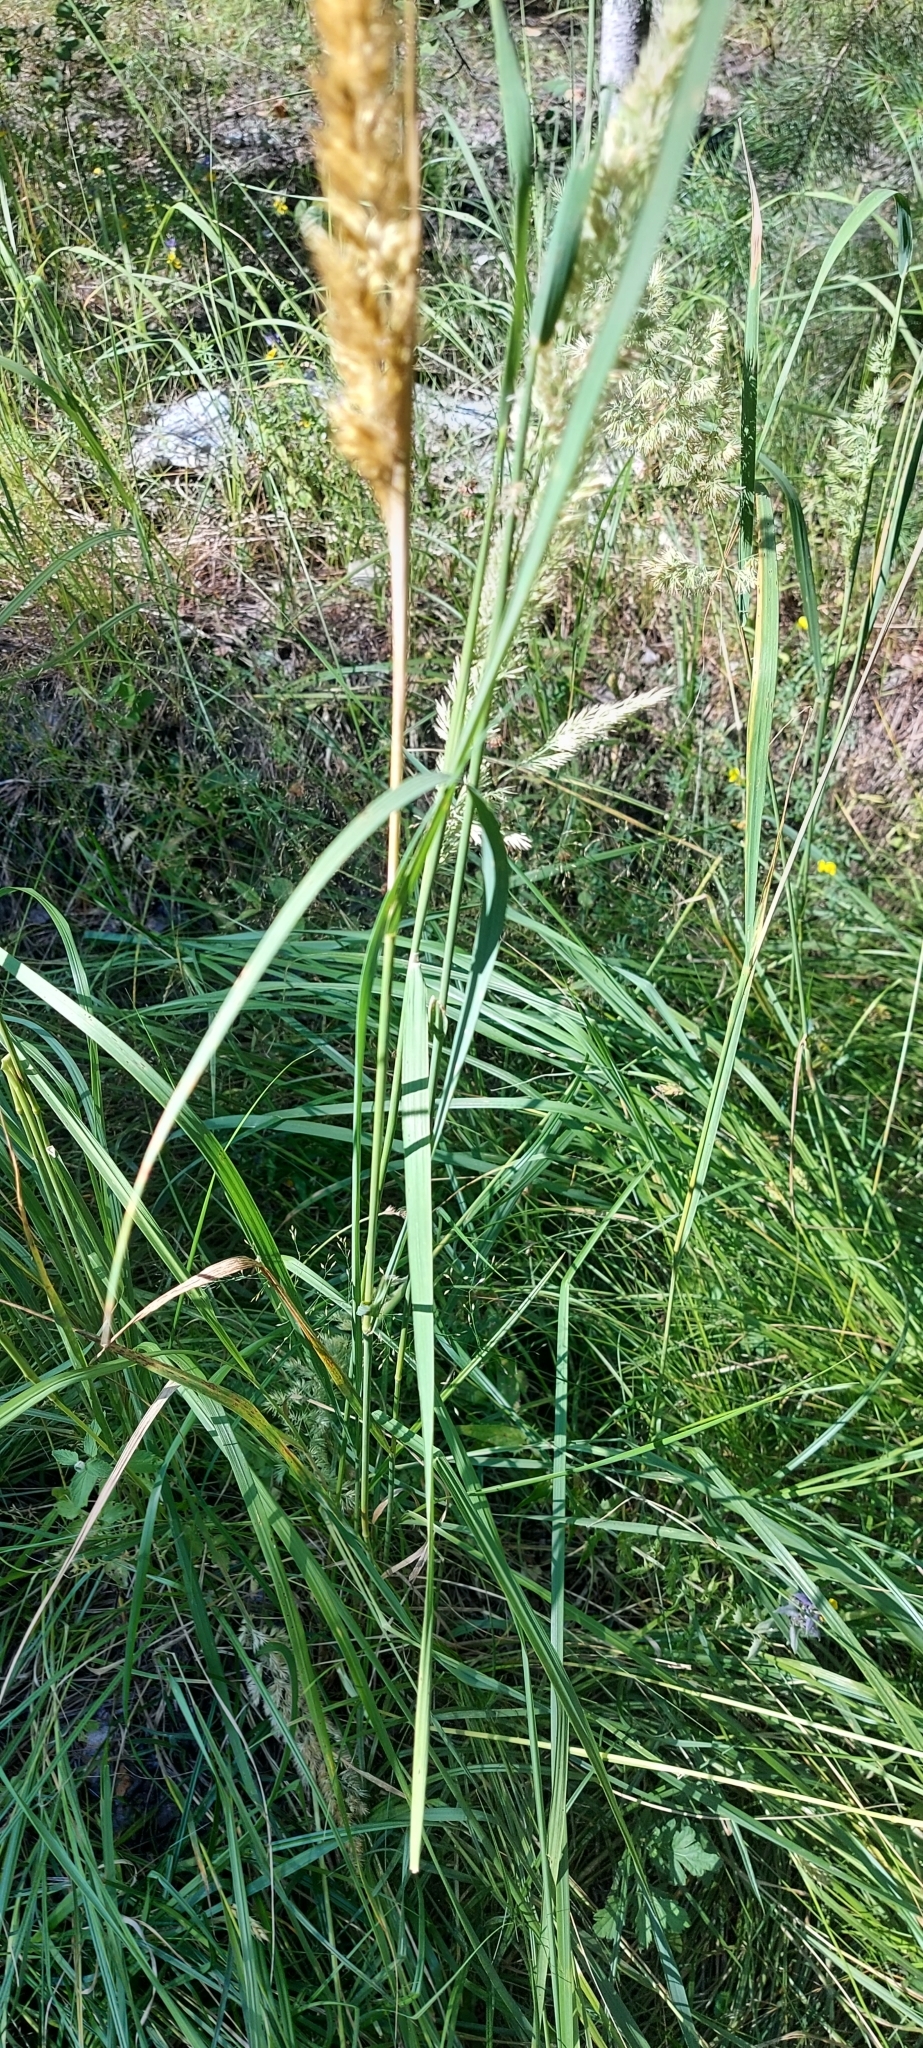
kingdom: Plantae
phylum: Tracheophyta
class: Liliopsida
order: Poales
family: Poaceae
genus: Calamagrostis
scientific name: Calamagrostis epigejos
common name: Wood small-reed
